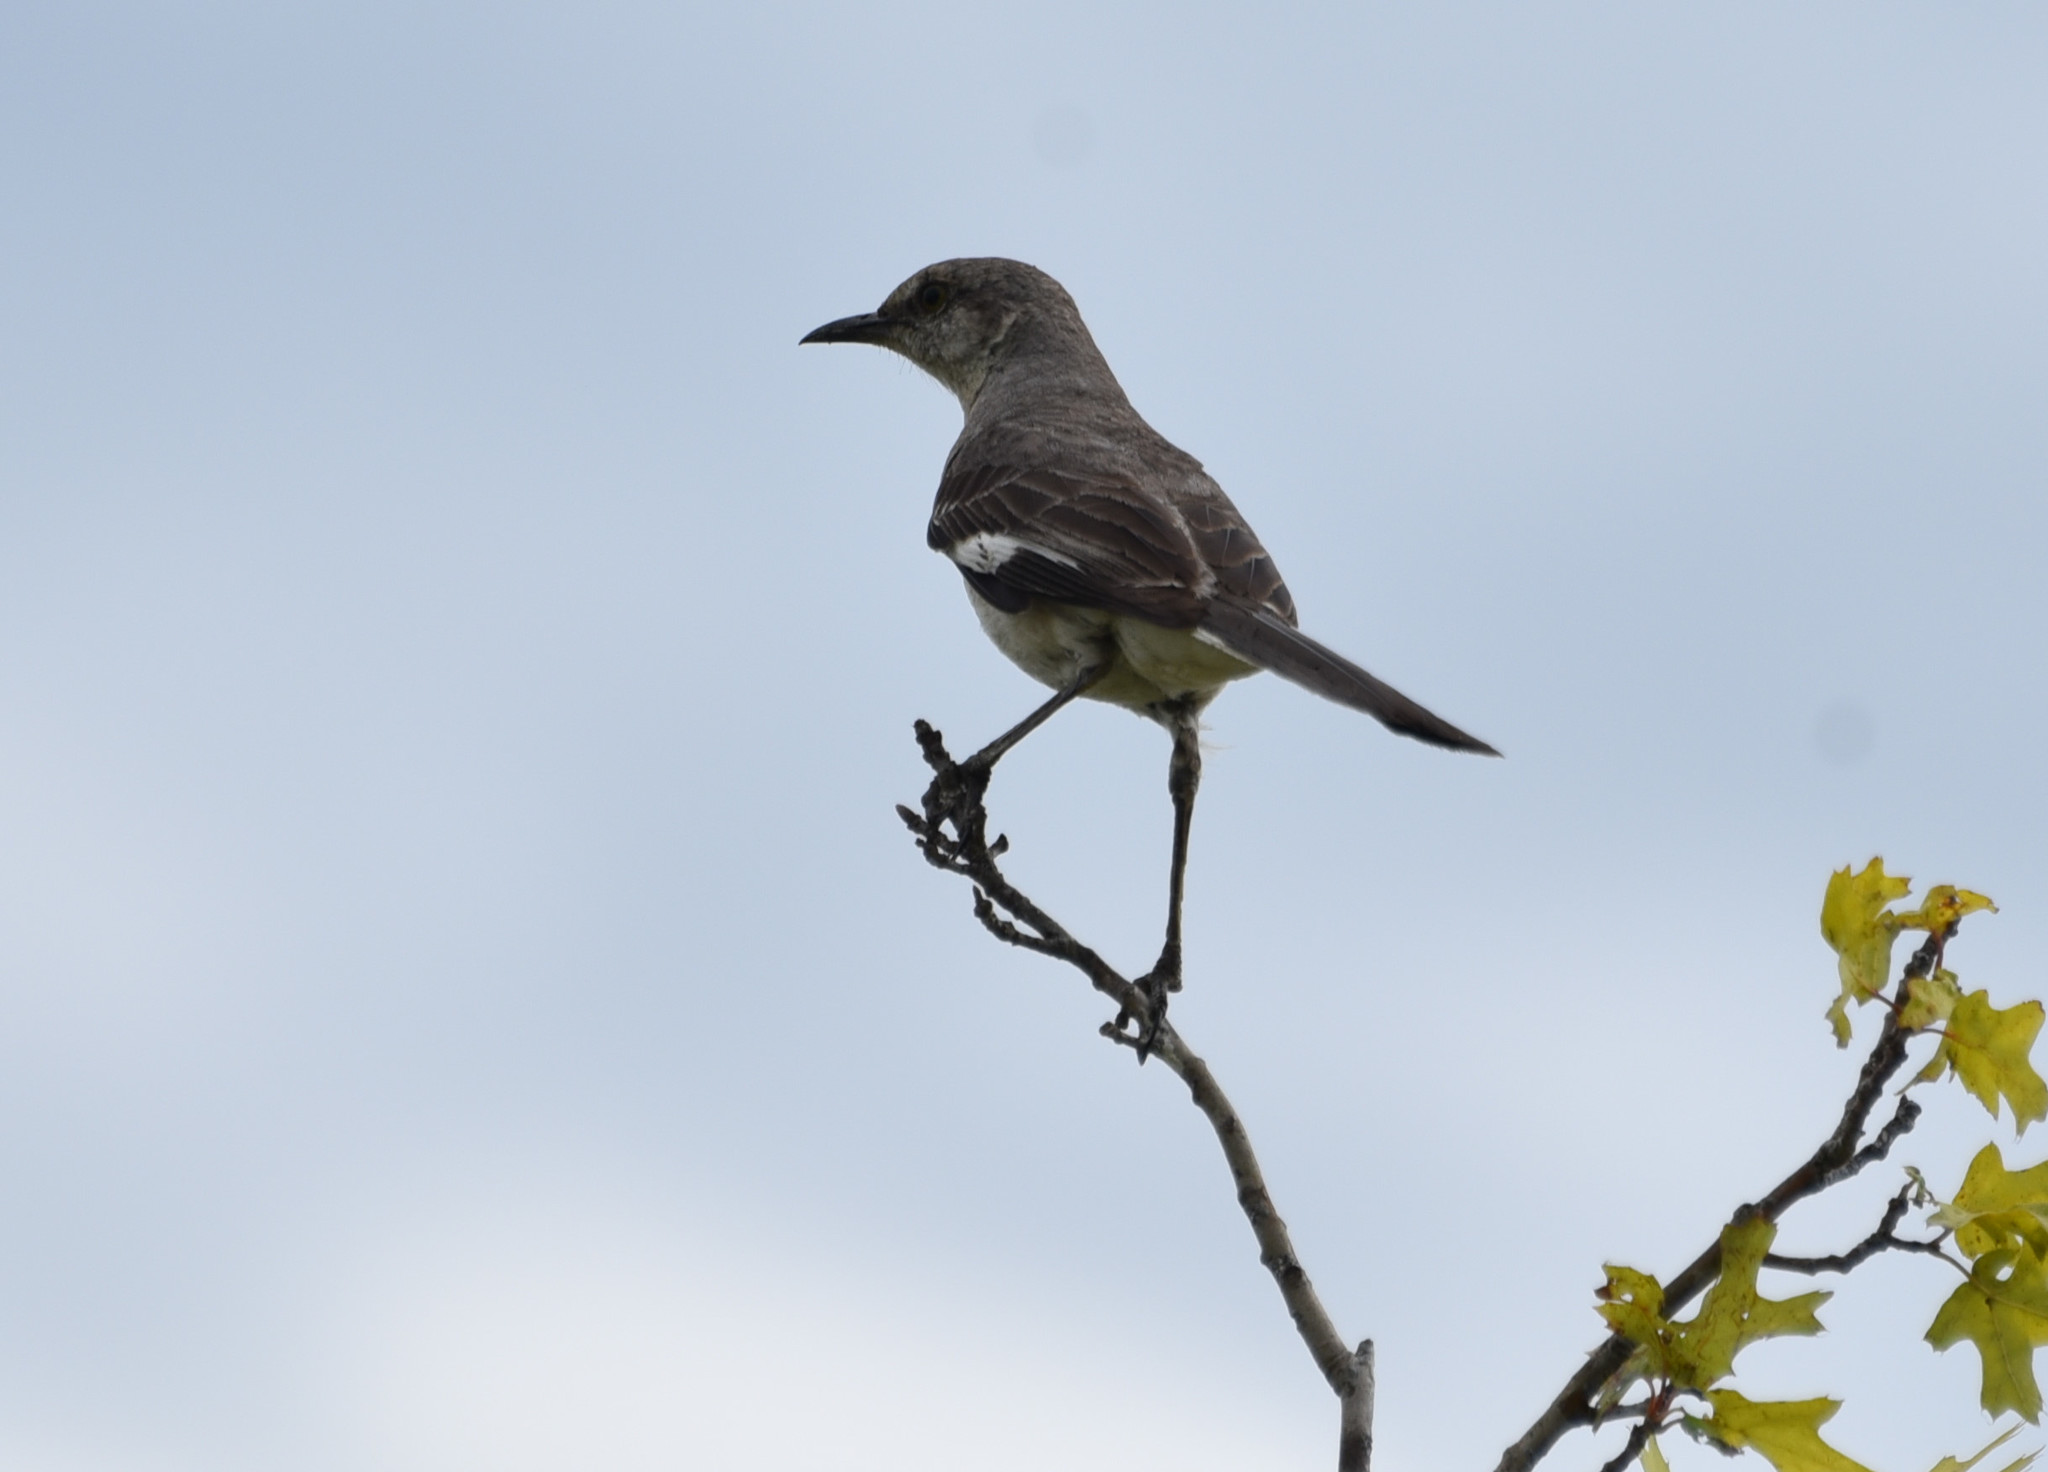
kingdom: Animalia
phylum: Chordata
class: Aves
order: Passeriformes
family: Mimidae
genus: Mimus
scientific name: Mimus polyglottos
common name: Northern mockingbird
